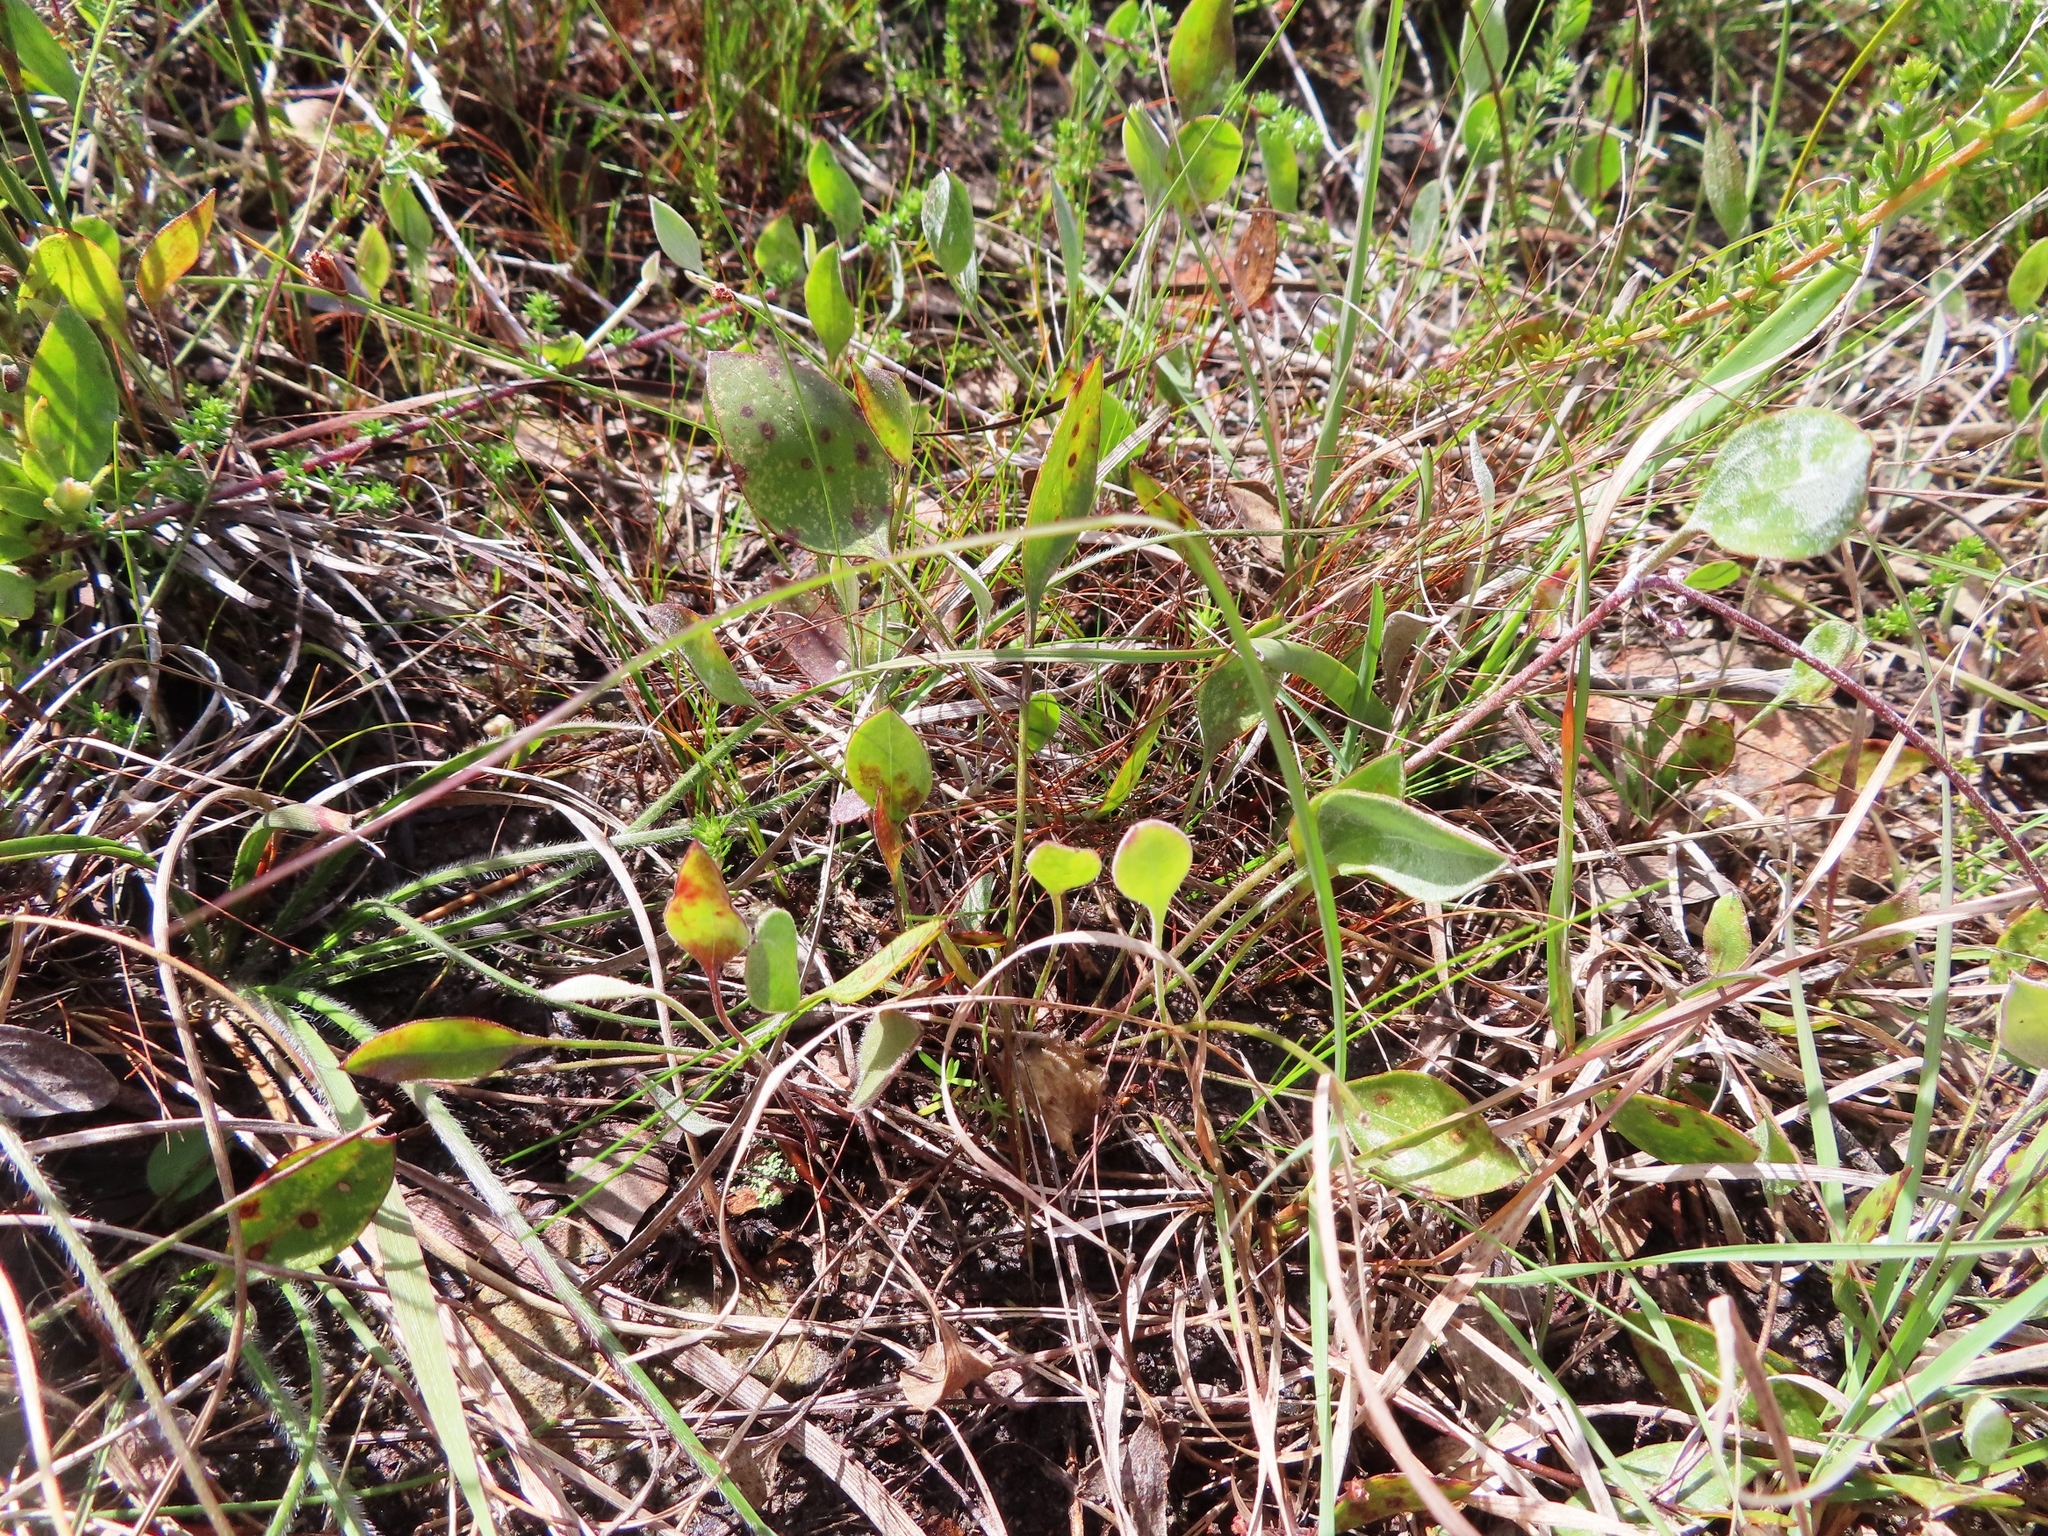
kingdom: Plantae
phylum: Tracheophyta
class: Magnoliopsida
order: Apiales
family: Apiaceae
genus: Centella
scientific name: Centella difformis
